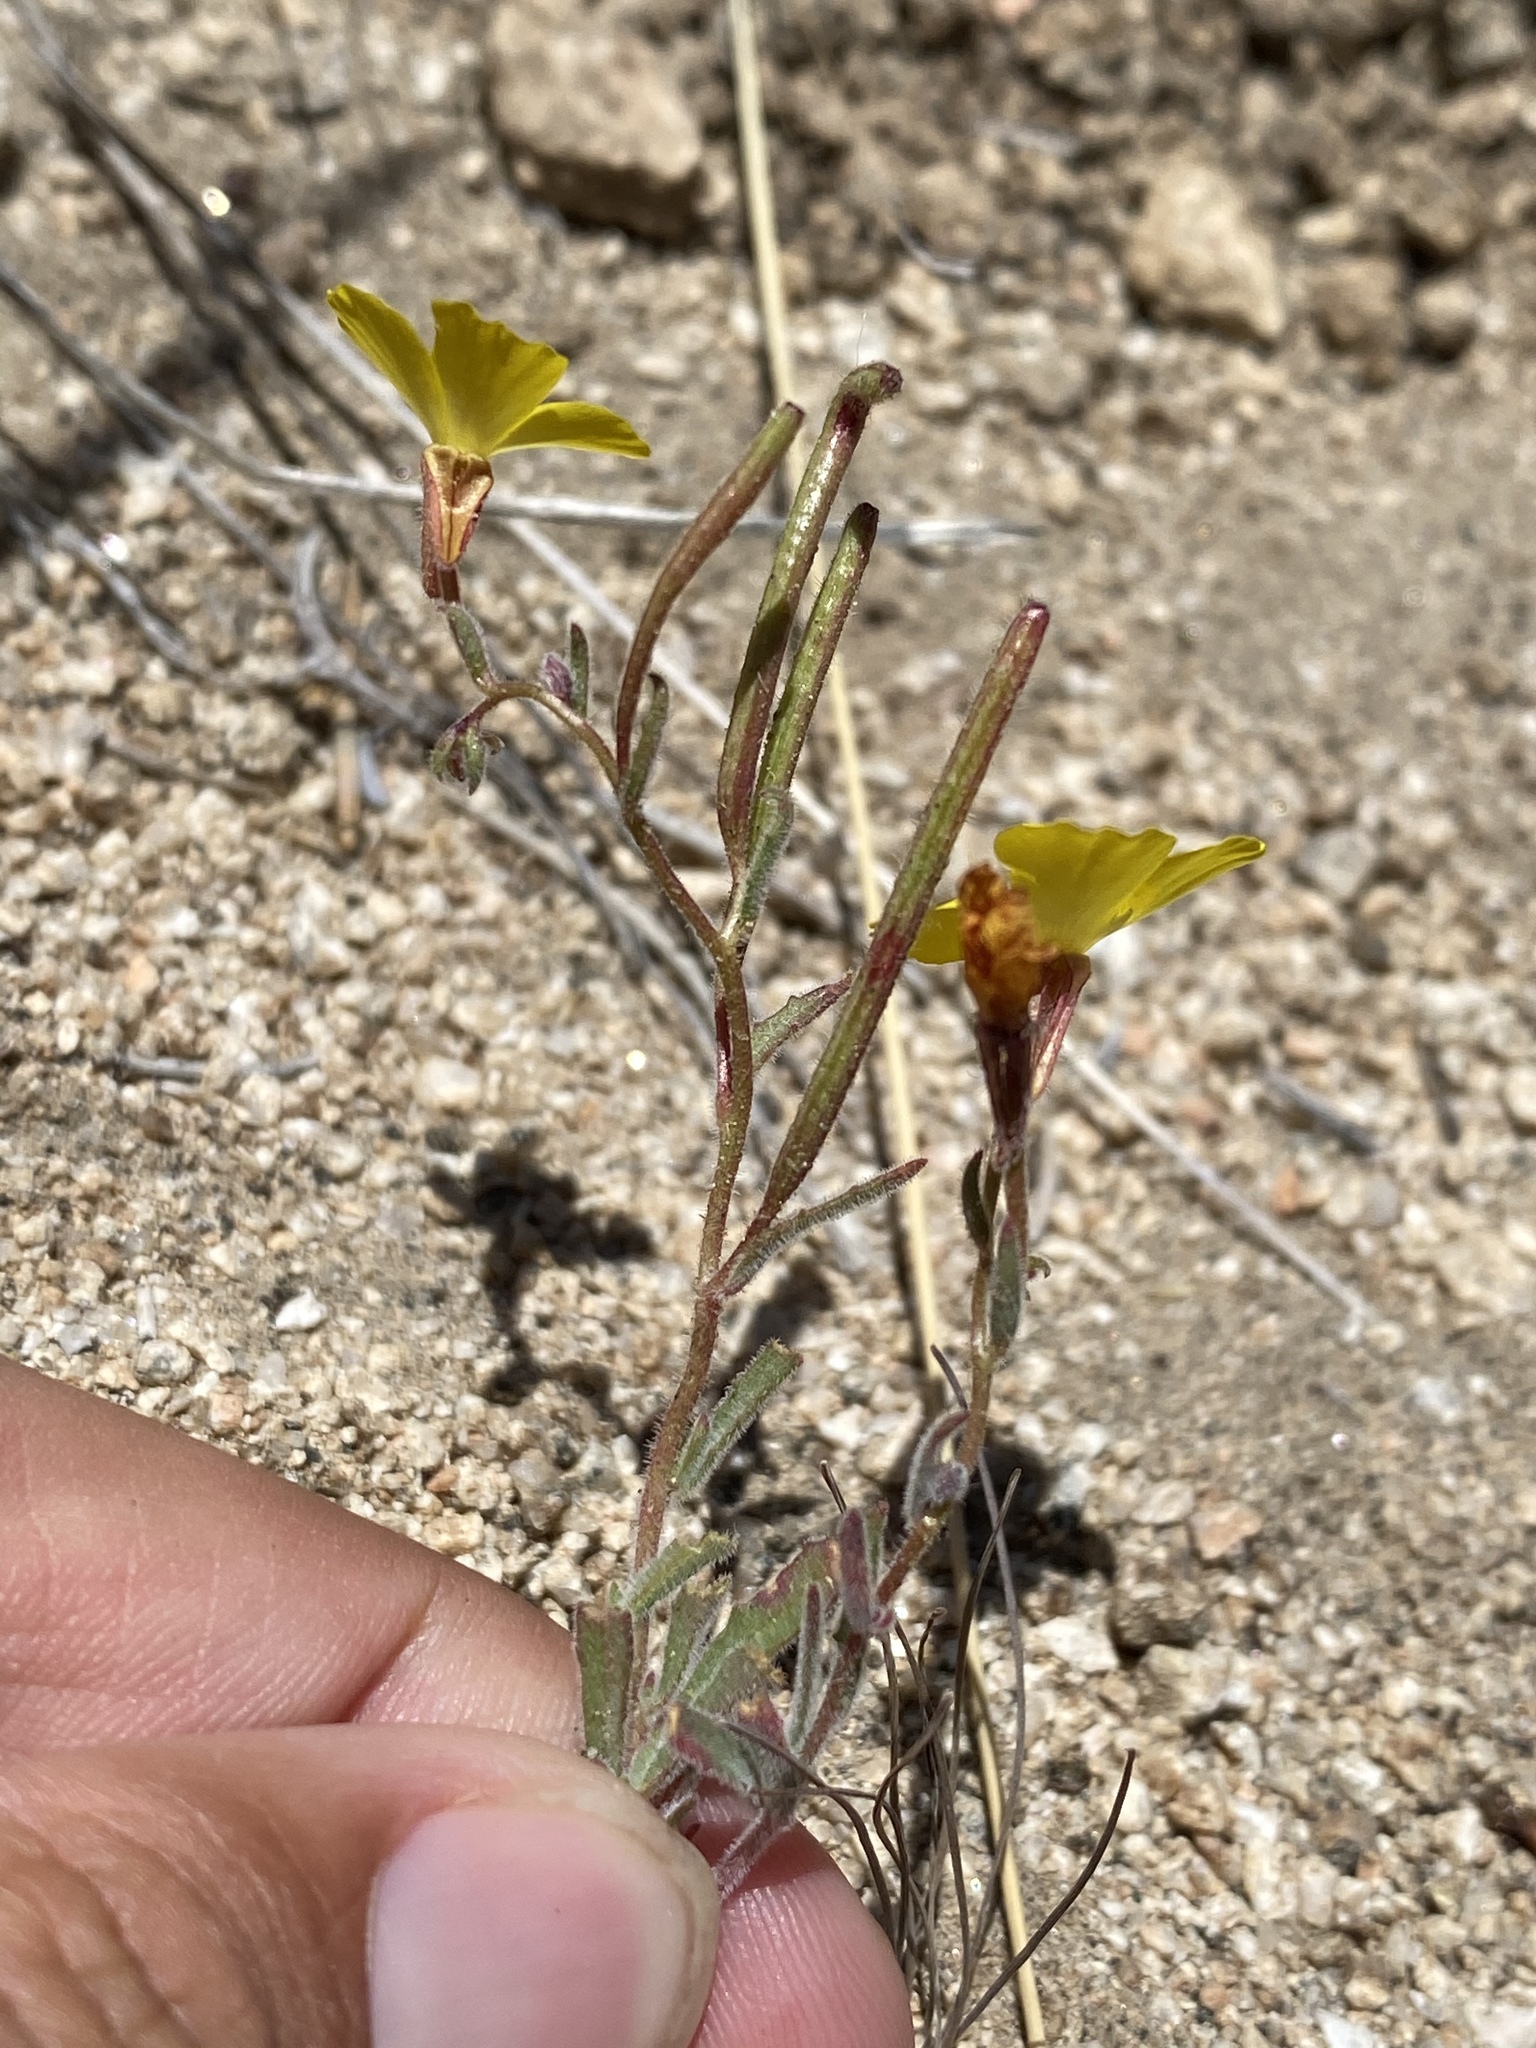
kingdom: Plantae
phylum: Tracheophyta
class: Magnoliopsida
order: Myrtales
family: Onagraceae
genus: Camissonia
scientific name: Camissonia kernensis
